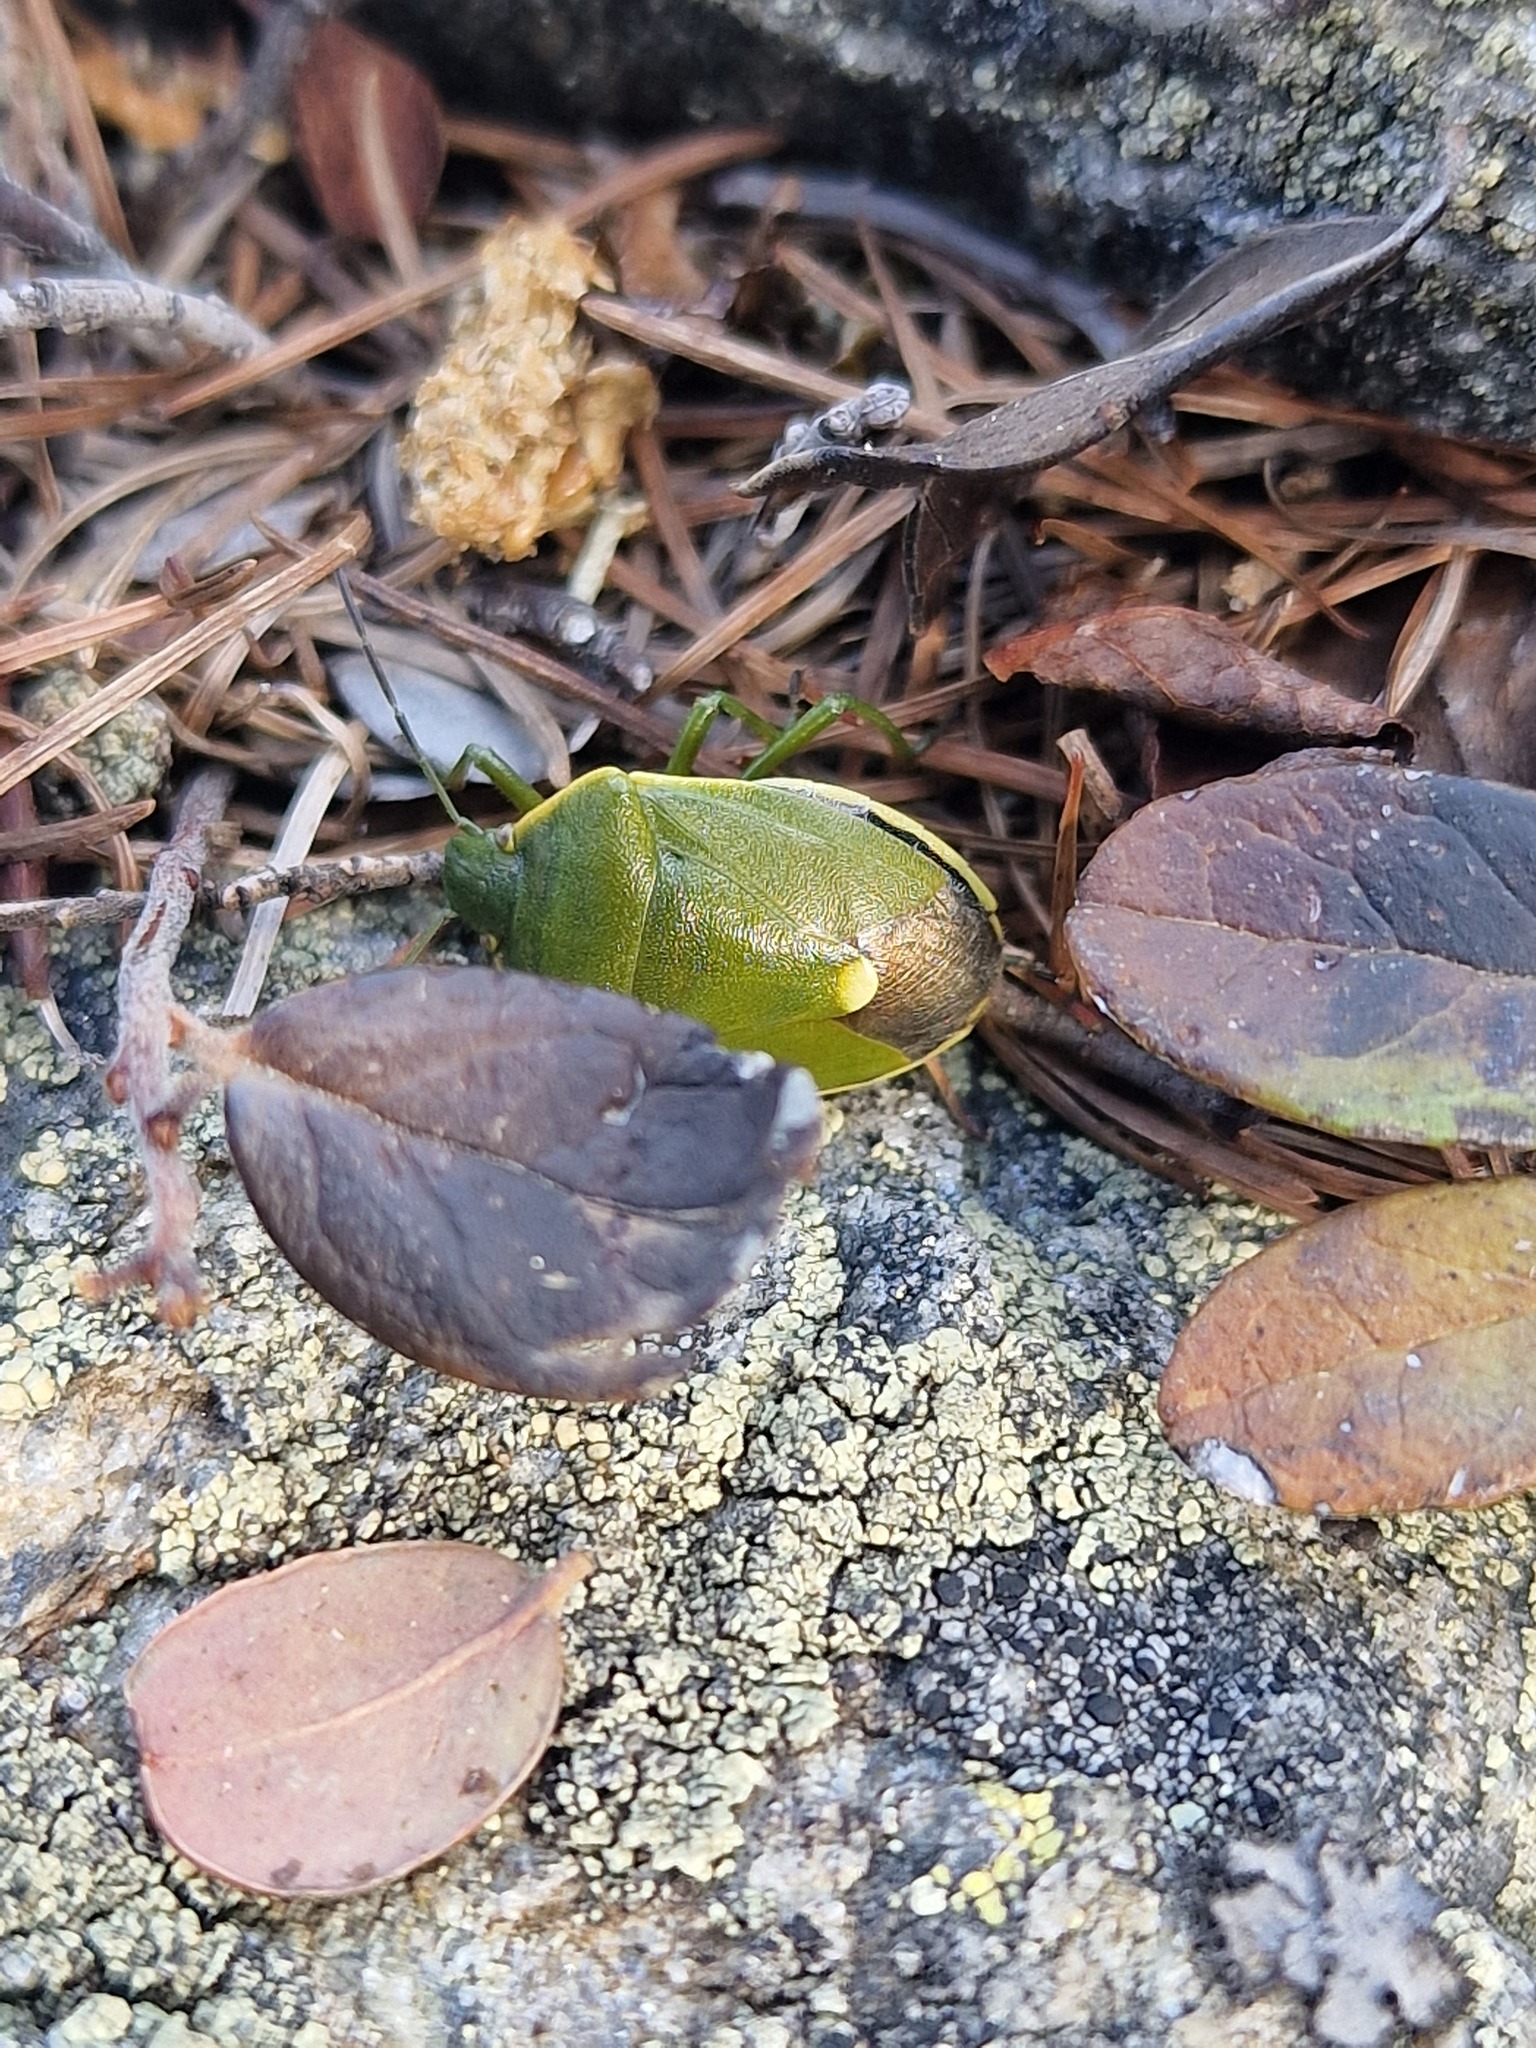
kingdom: Animalia
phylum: Arthropoda
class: Insecta
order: Hemiptera
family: Pentatomidae
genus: Chlorochroa
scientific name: Chlorochroa juniperina
